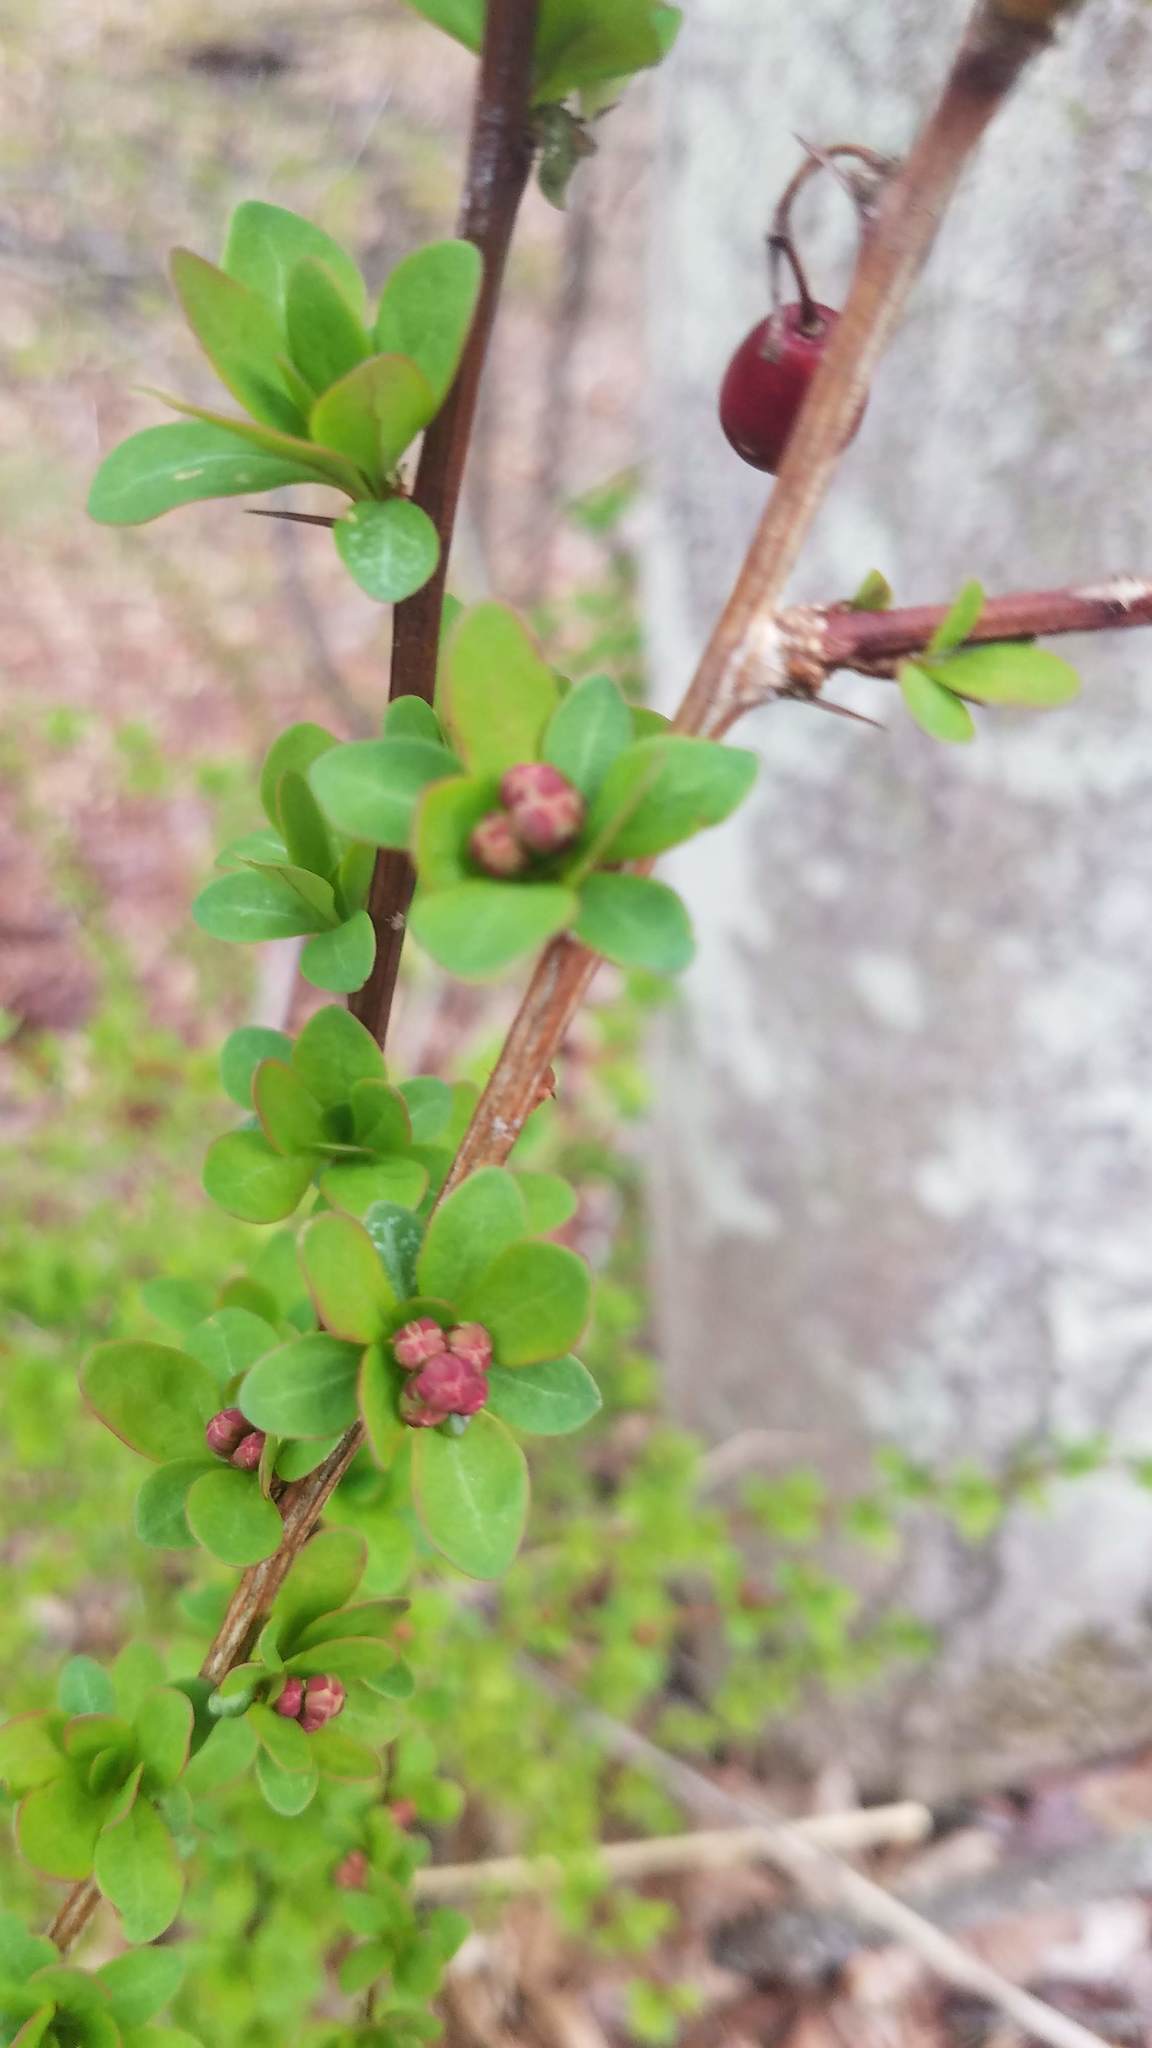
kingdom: Plantae
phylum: Tracheophyta
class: Magnoliopsida
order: Ranunculales
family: Berberidaceae
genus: Berberis
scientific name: Berberis thunbergii
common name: Japanese barberry
